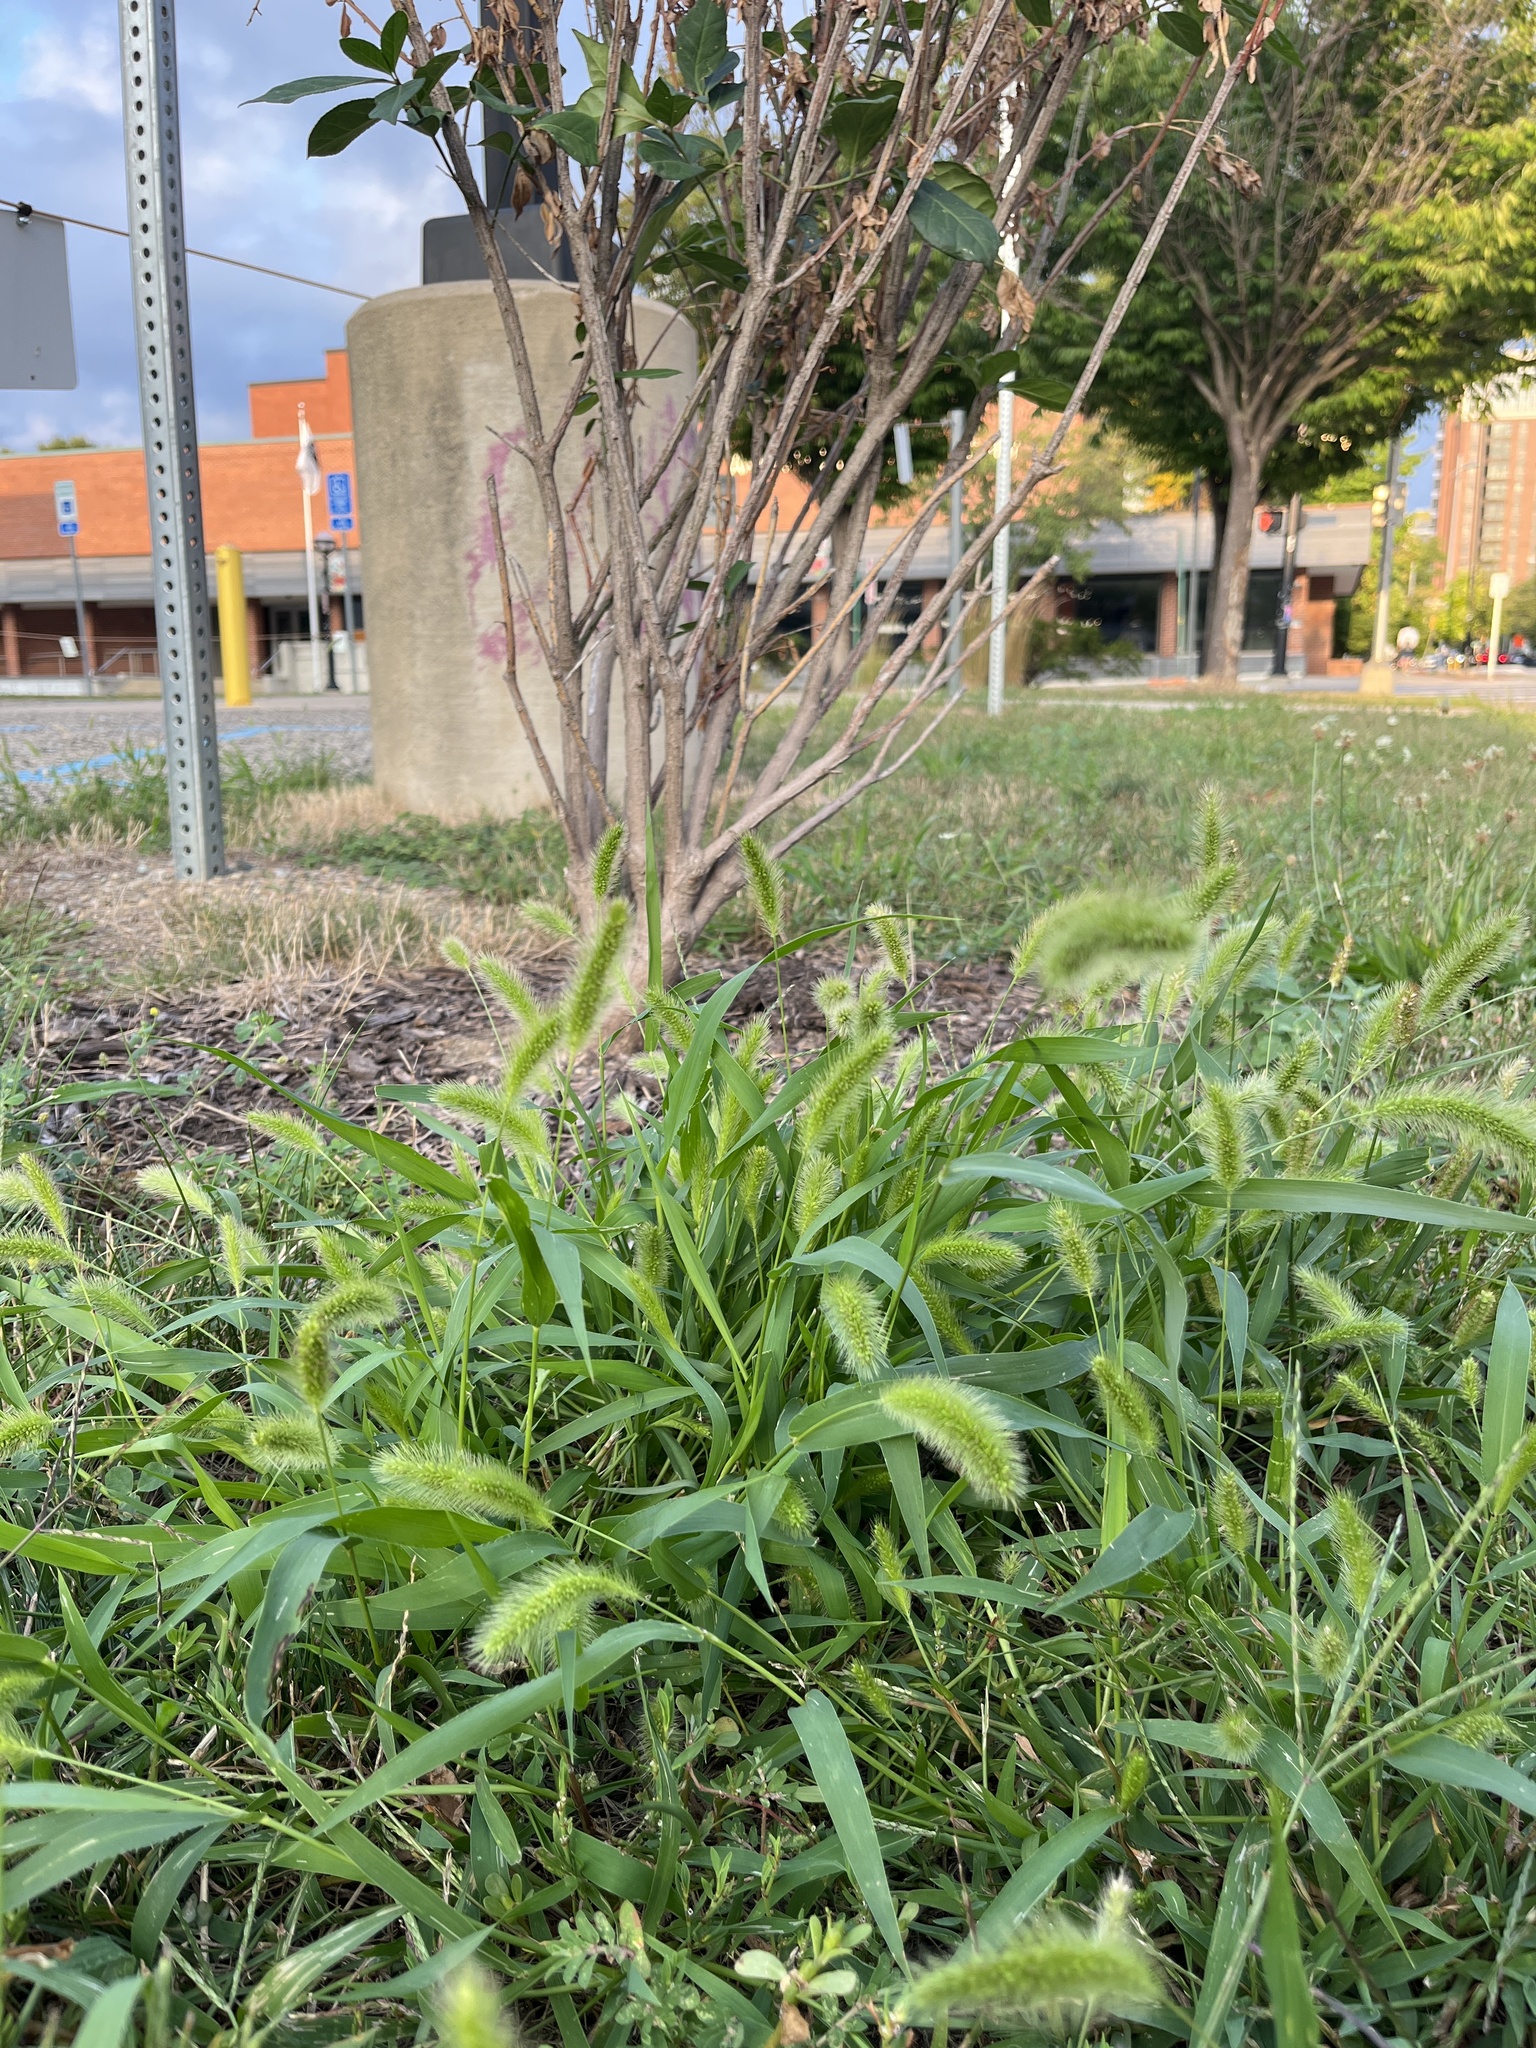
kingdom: Plantae
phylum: Tracheophyta
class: Liliopsida
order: Poales
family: Poaceae
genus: Setaria
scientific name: Setaria viridis
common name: Green bristlegrass
